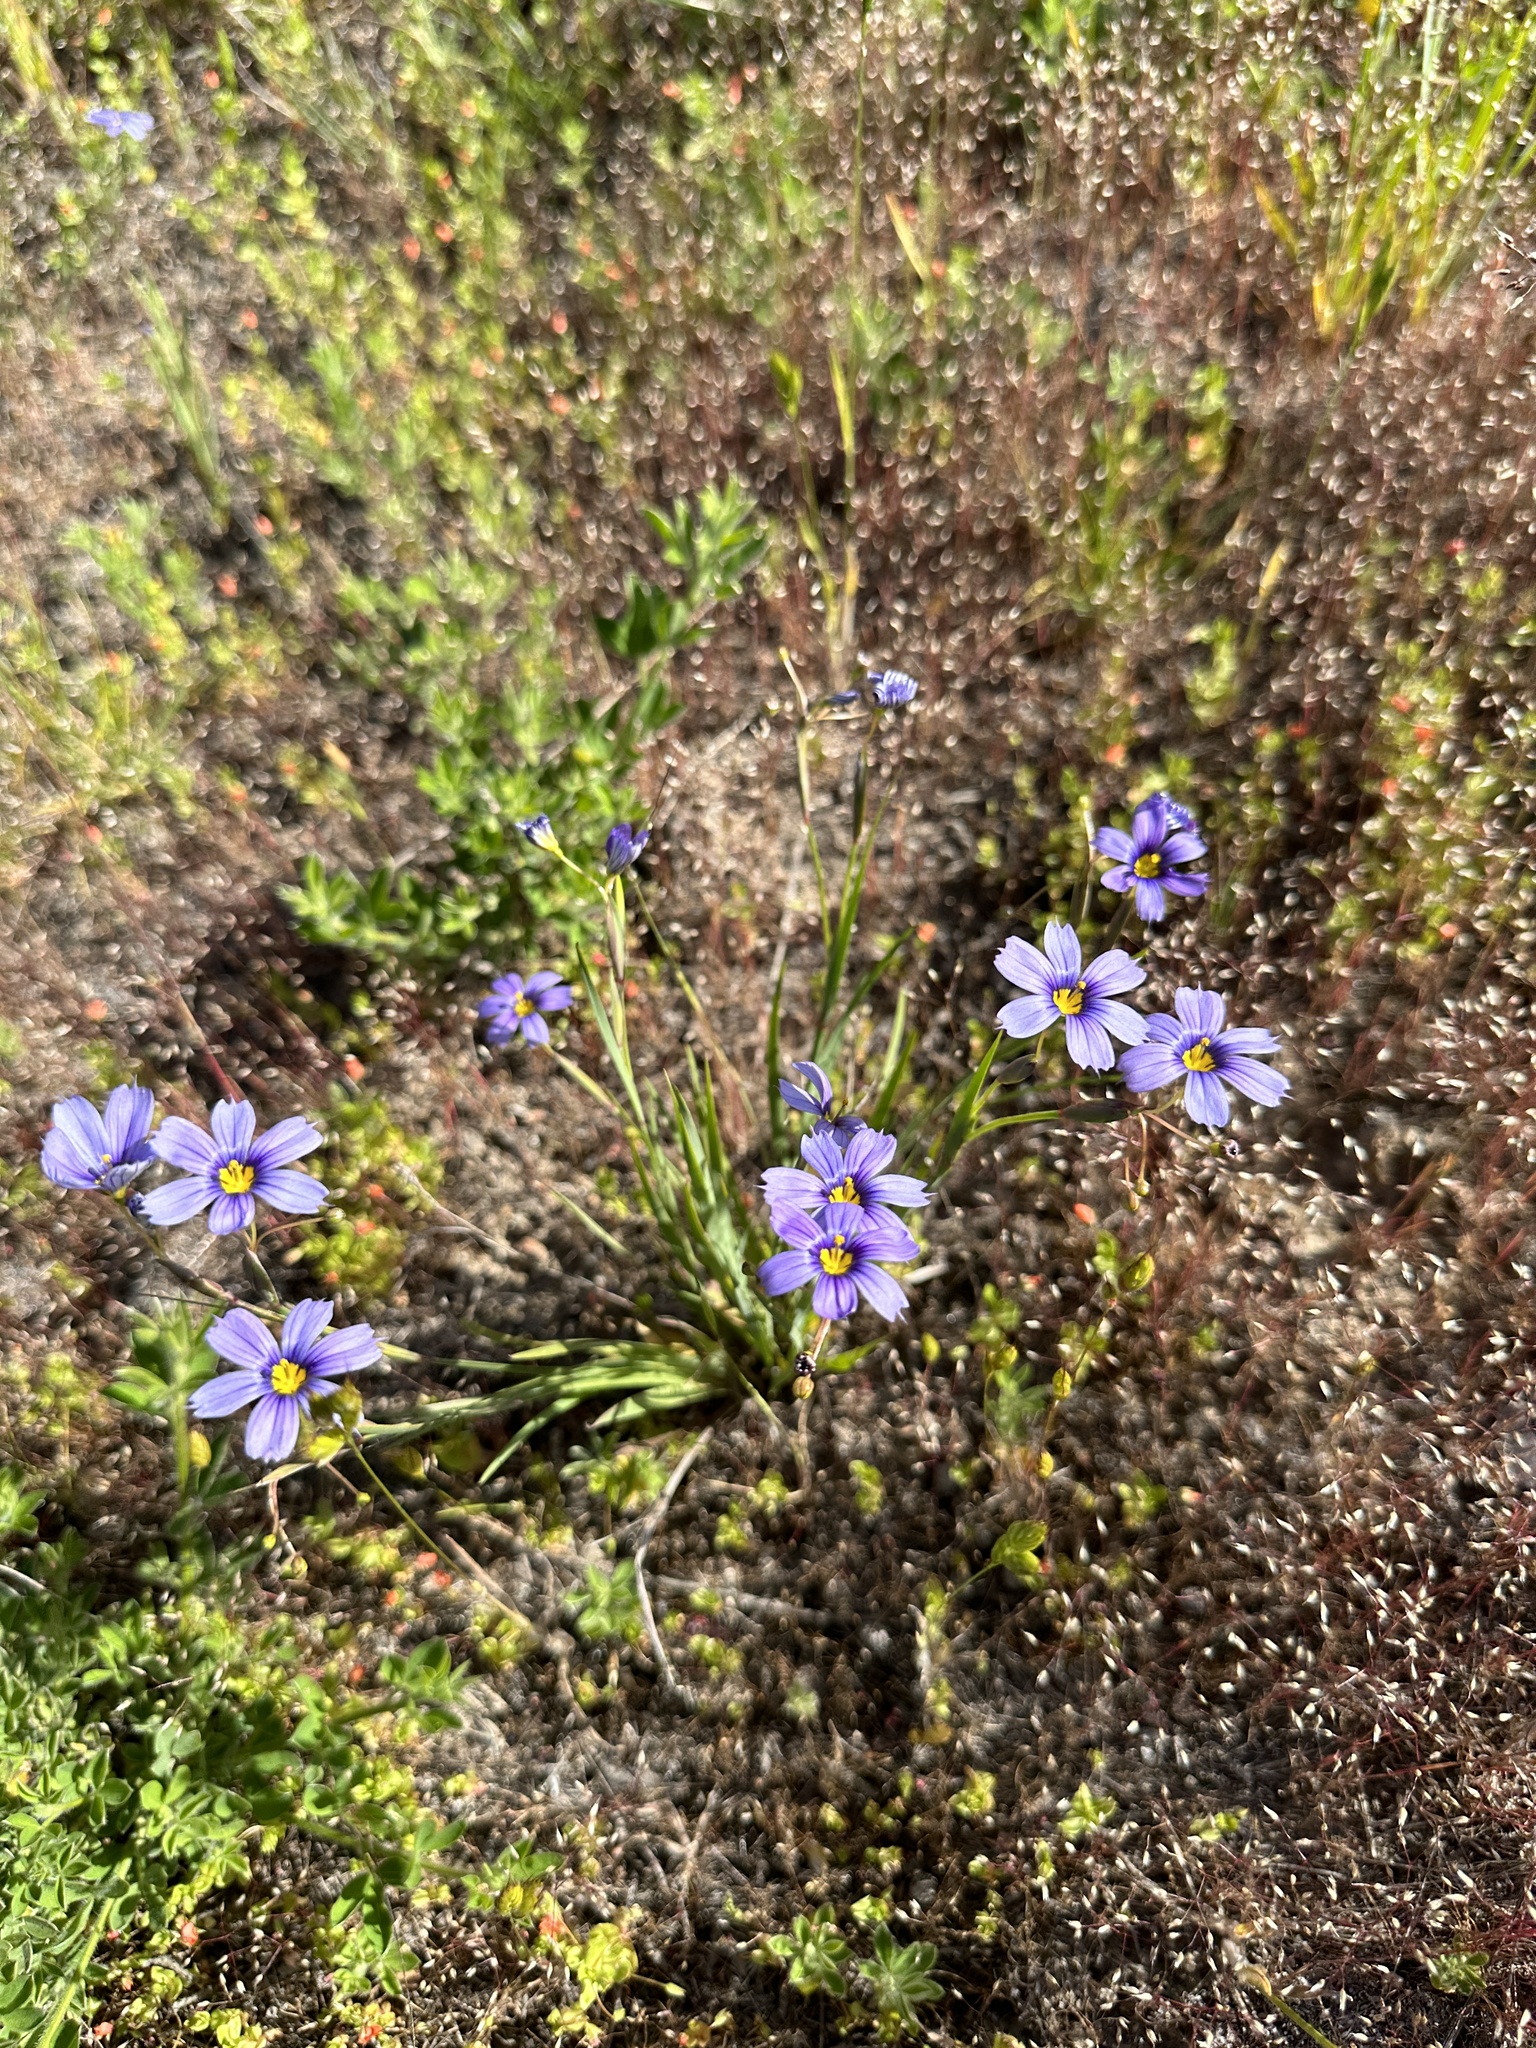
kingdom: Plantae
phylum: Tracheophyta
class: Liliopsida
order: Asparagales
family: Iridaceae
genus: Sisyrinchium
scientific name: Sisyrinchium bellum
